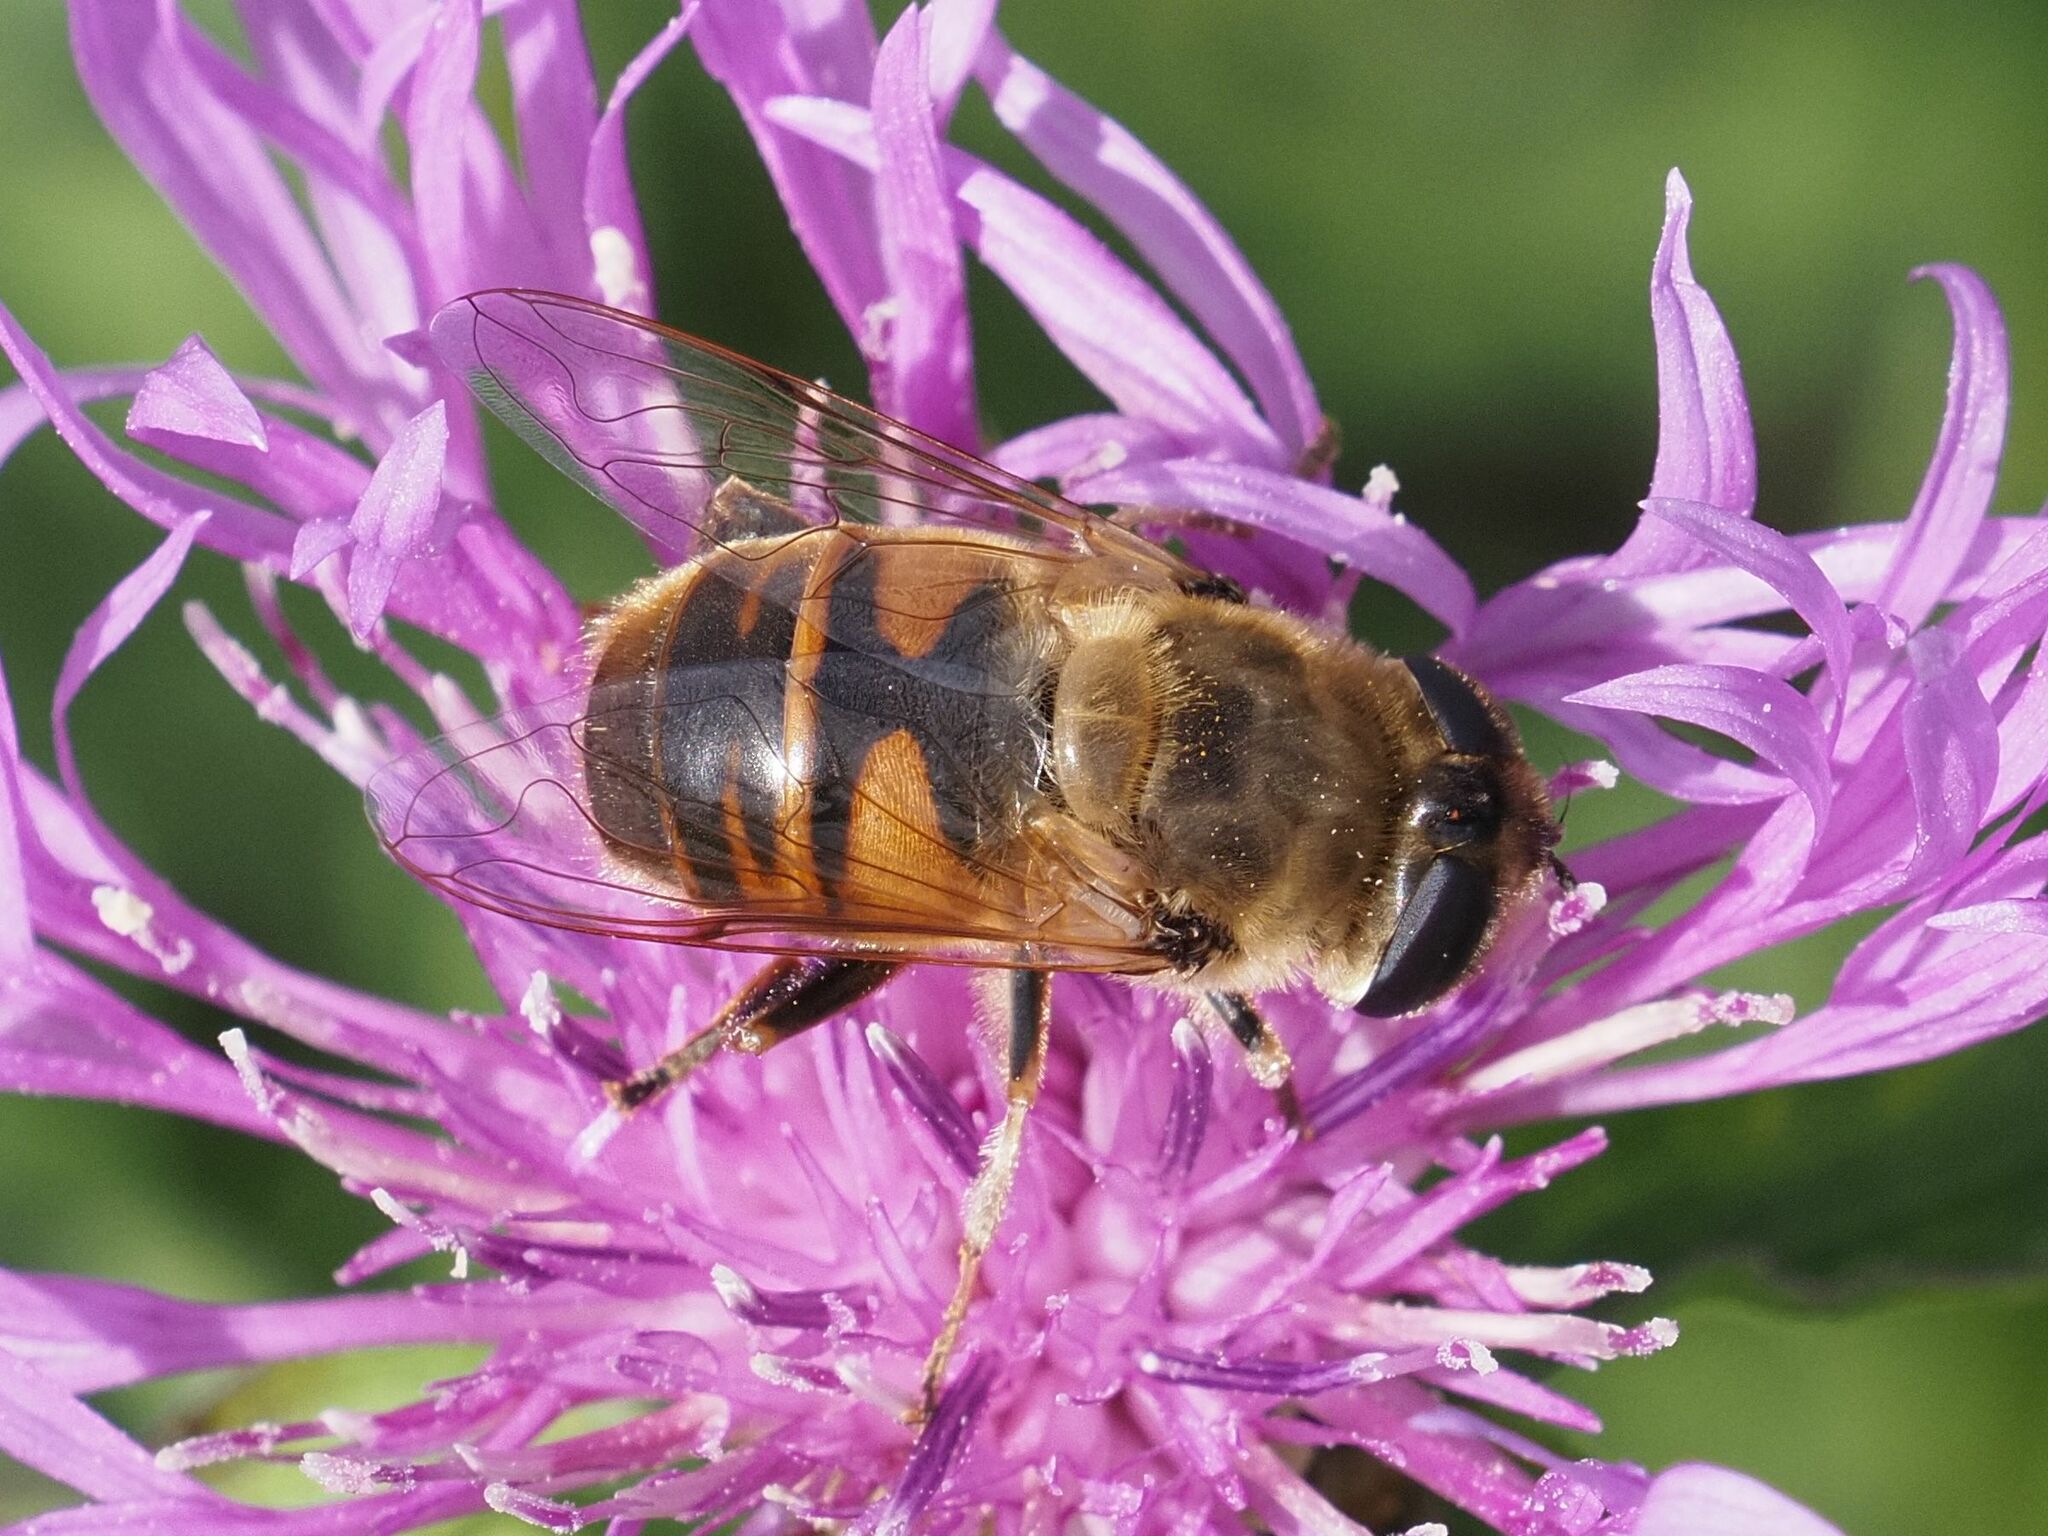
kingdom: Animalia
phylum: Arthropoda
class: Insecta
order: Diptera
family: Syrphidae
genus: Eristalis
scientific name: Eristalis tenax
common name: Drone fly
